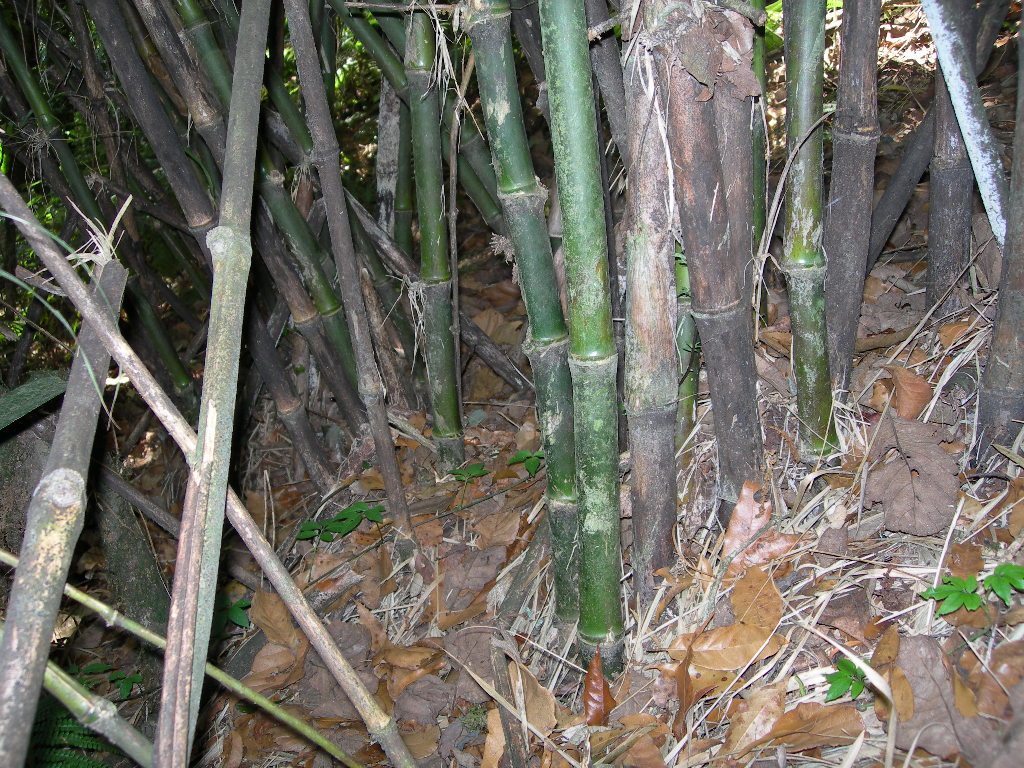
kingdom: Plantae
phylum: Tracheophyta
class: Liliopsida
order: Poales
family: Poaceae
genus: Chusquea
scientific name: Chusquea longifolia
